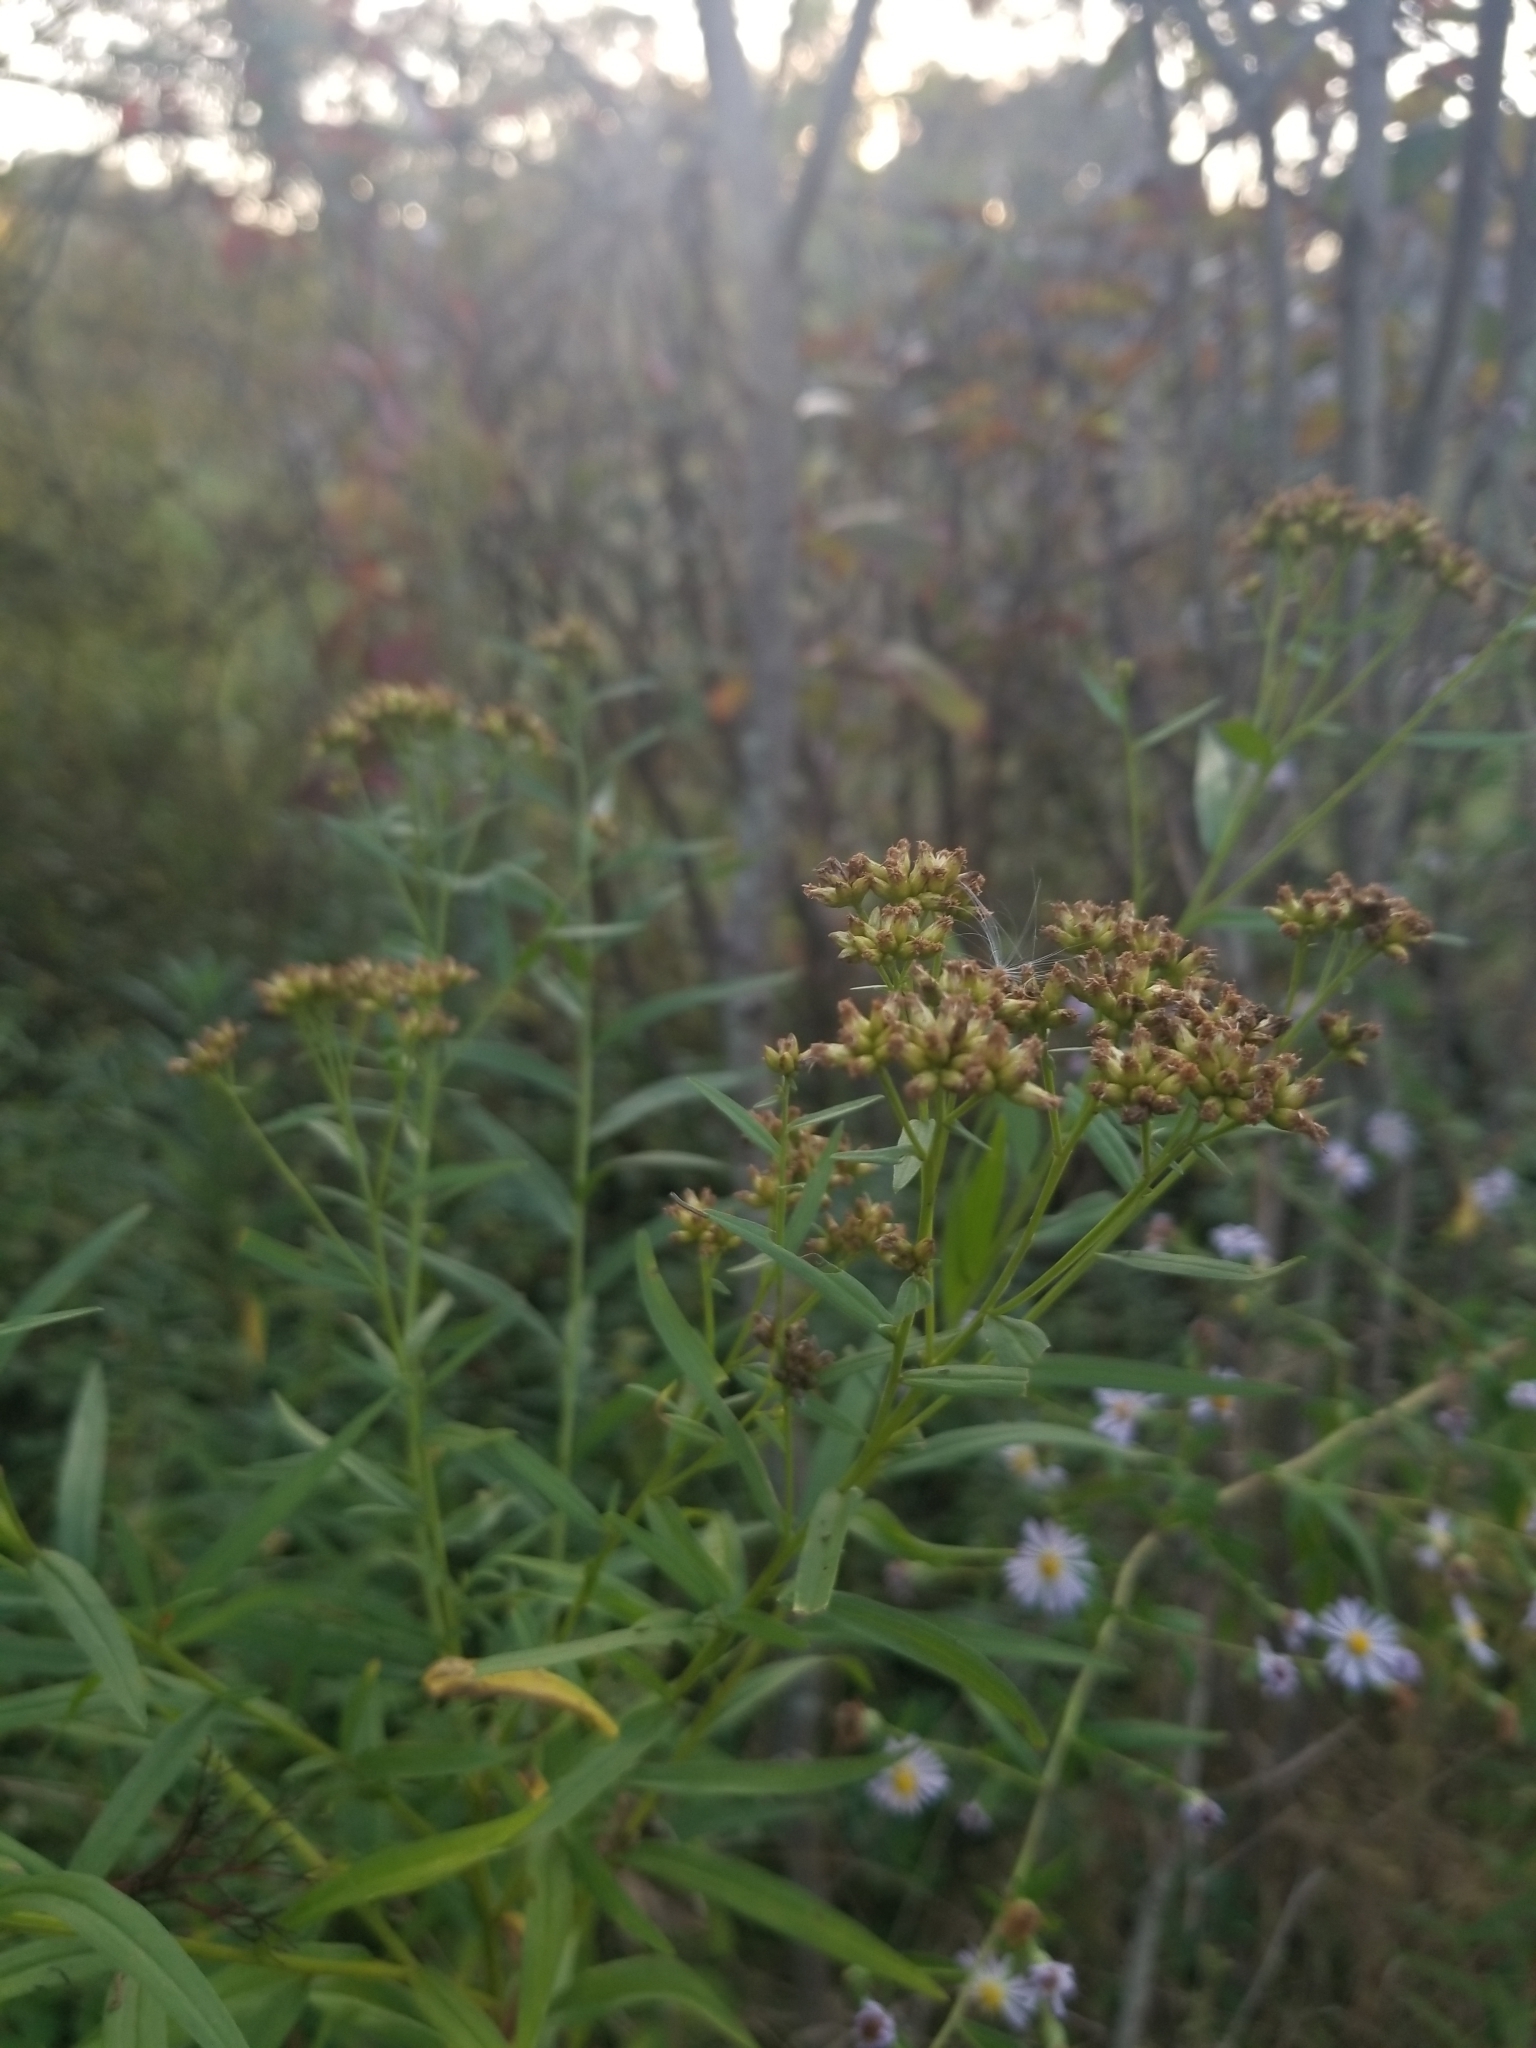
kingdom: Plantae
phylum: Tracheophyta
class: Magnoliopsida
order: Asterales
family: Asteraceae
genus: Euthamia
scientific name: Euthamia graminifolia
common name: Common goldentop
